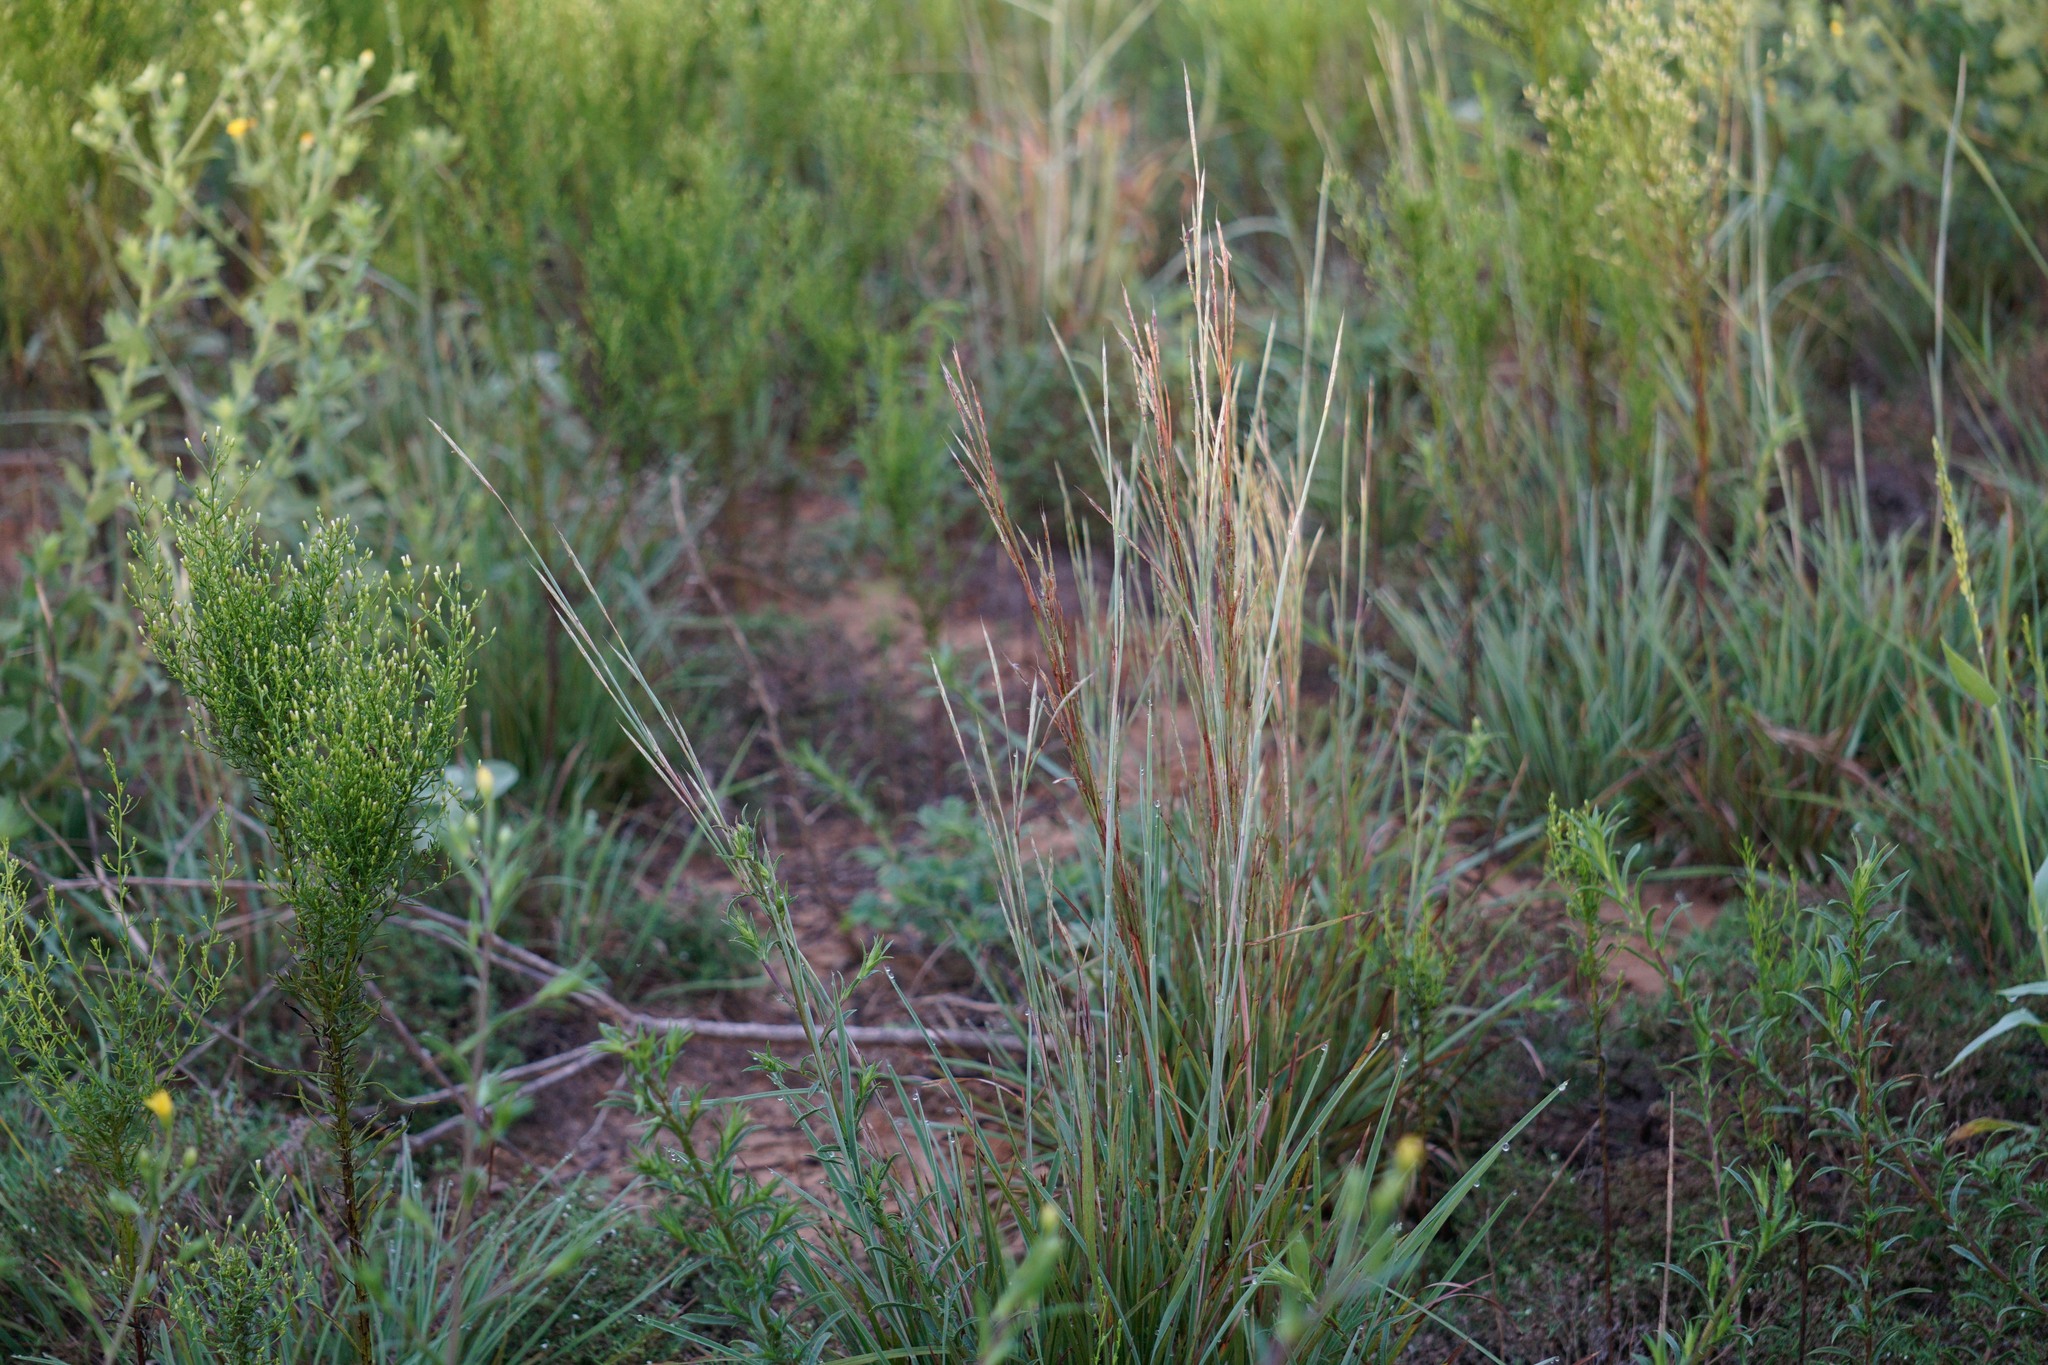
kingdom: Plantae
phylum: Tracheophyta
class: Liliopsida
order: Poales
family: Poaceae
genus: Schizachyrium
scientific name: Schizachyrium scoparium
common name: Little bluestem
